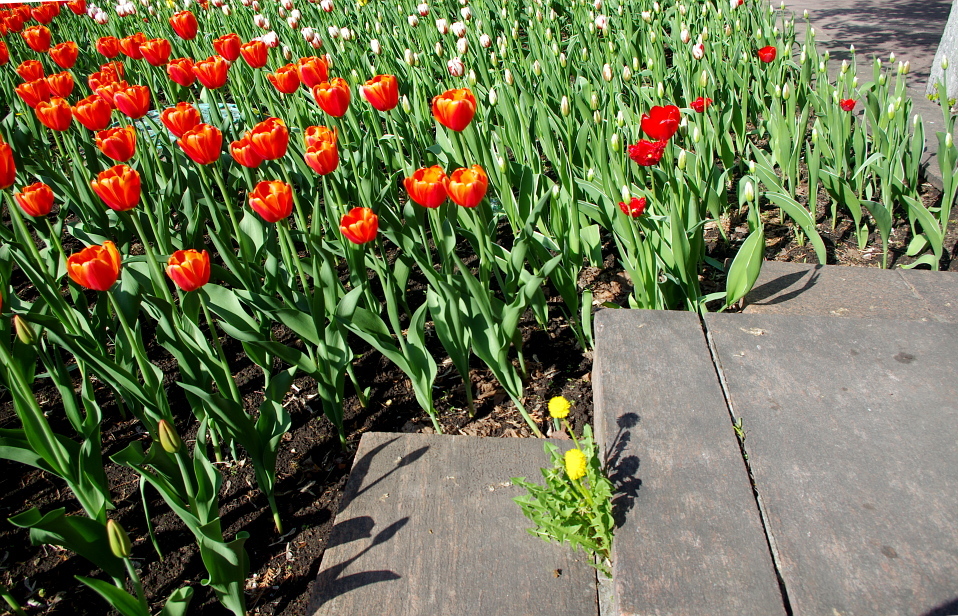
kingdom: Plantae
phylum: Tracheophyta
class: Magnoliopsida
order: Asterales
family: Asteraceae
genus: Taraxacum
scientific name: Taraxacum officinale
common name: Common dandelion
